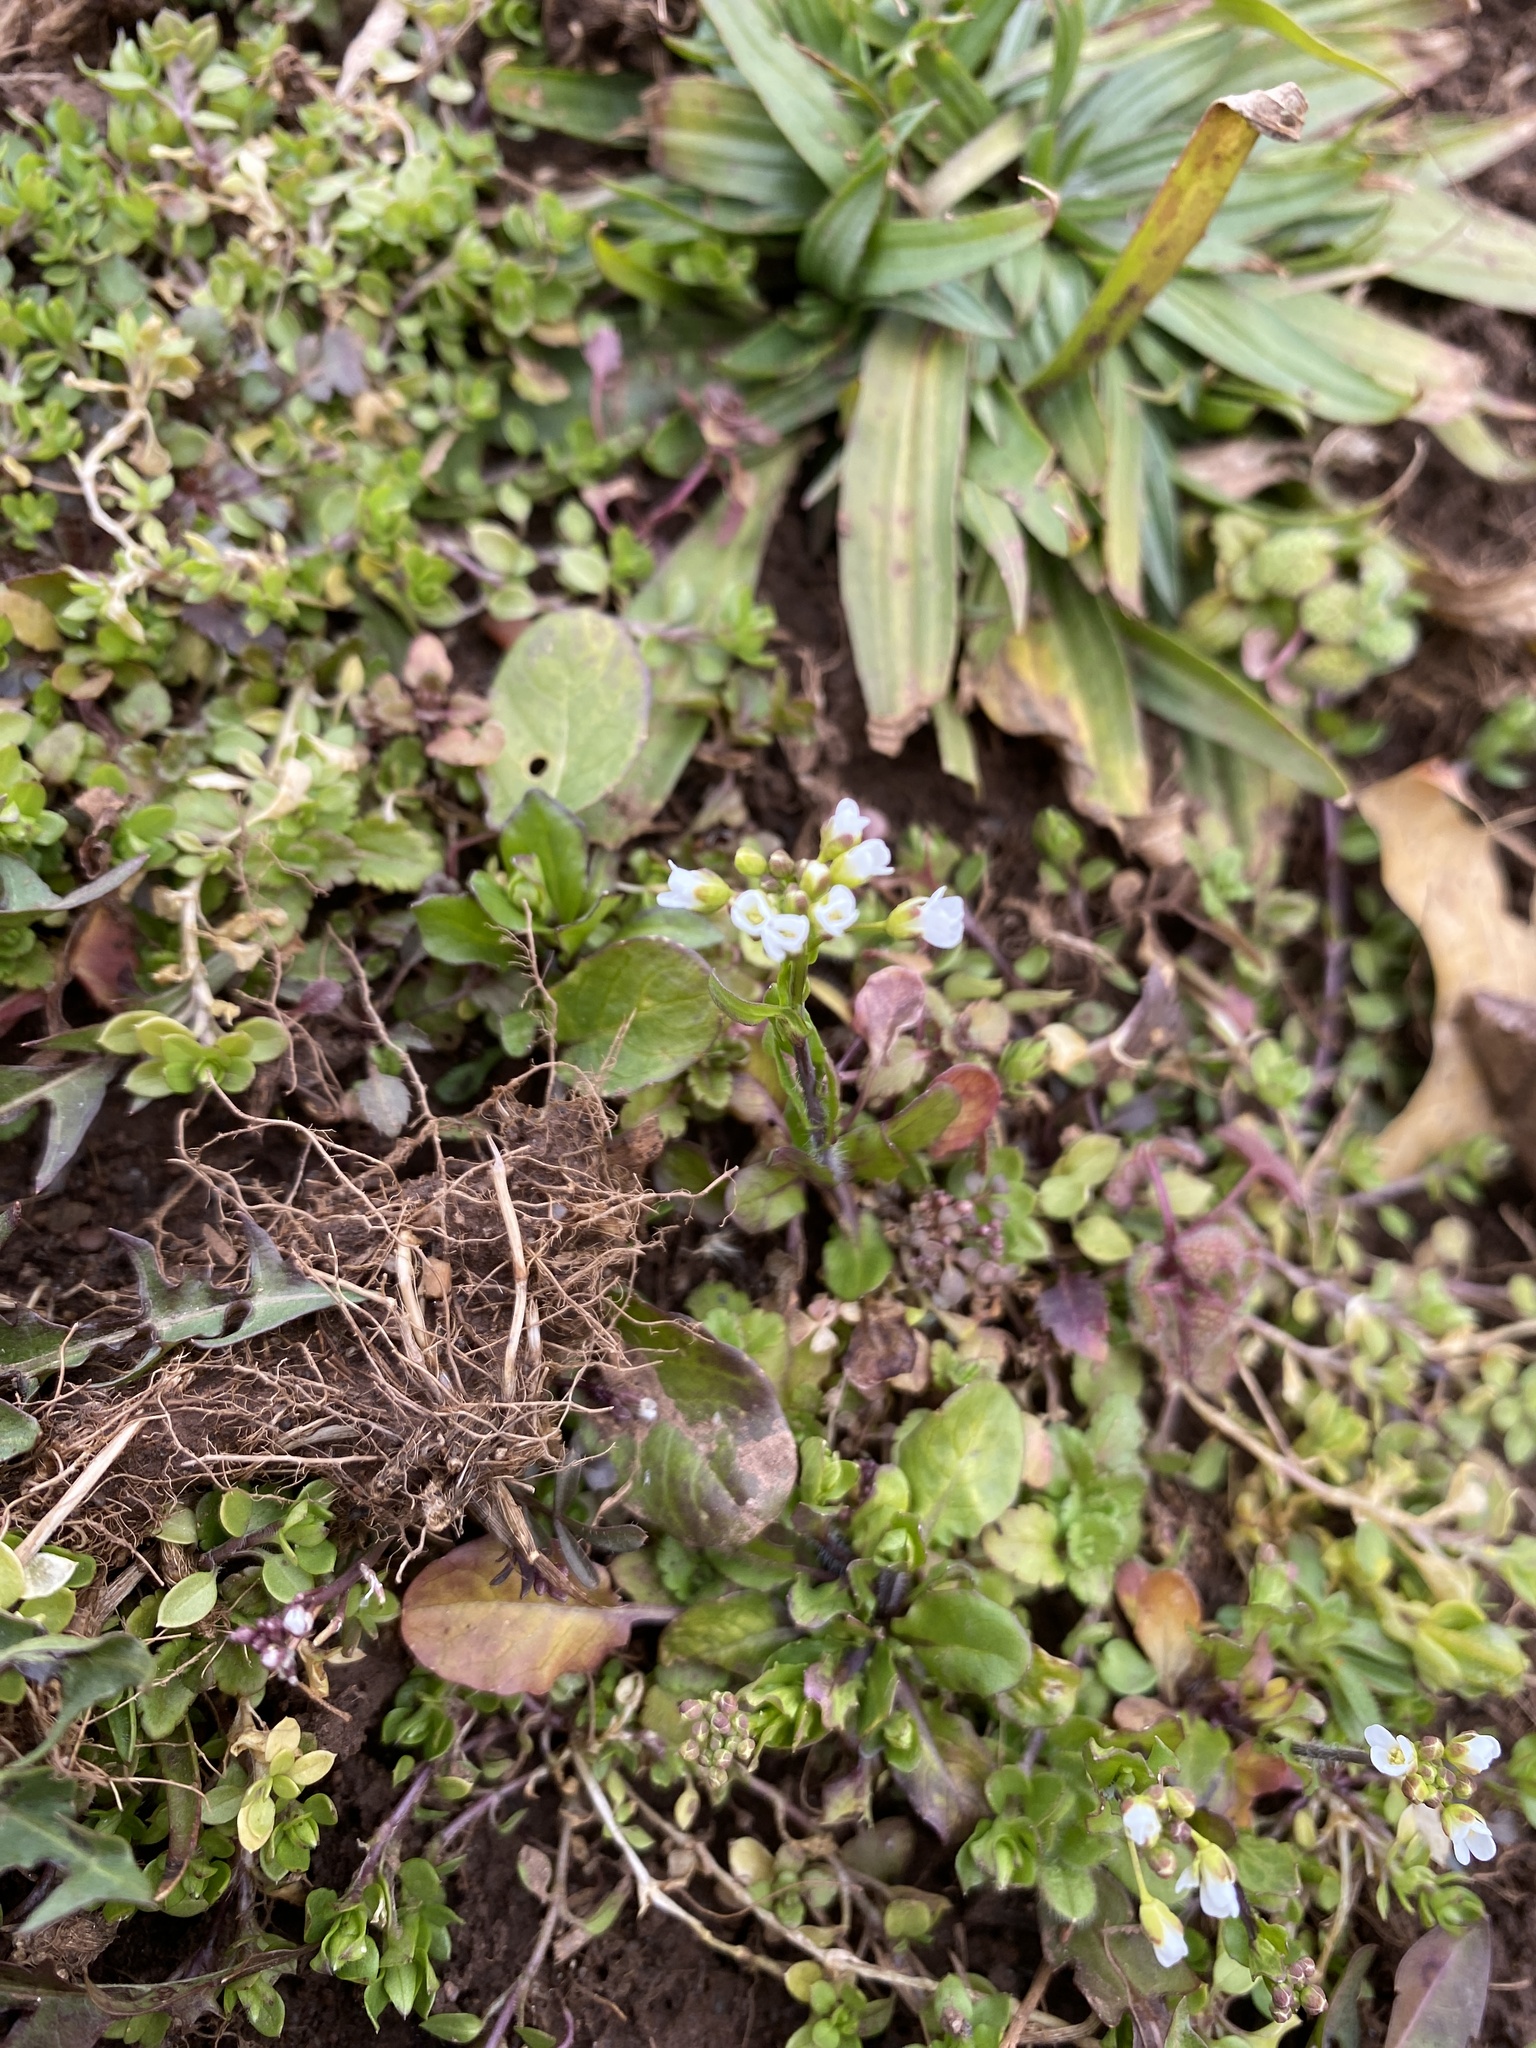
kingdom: Plantae
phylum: Tracheophyta
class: Magnoliopsida
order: Brassicales
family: Brassicaceae
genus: Mummenhoffia
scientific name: Mummenhoffia alliacea
